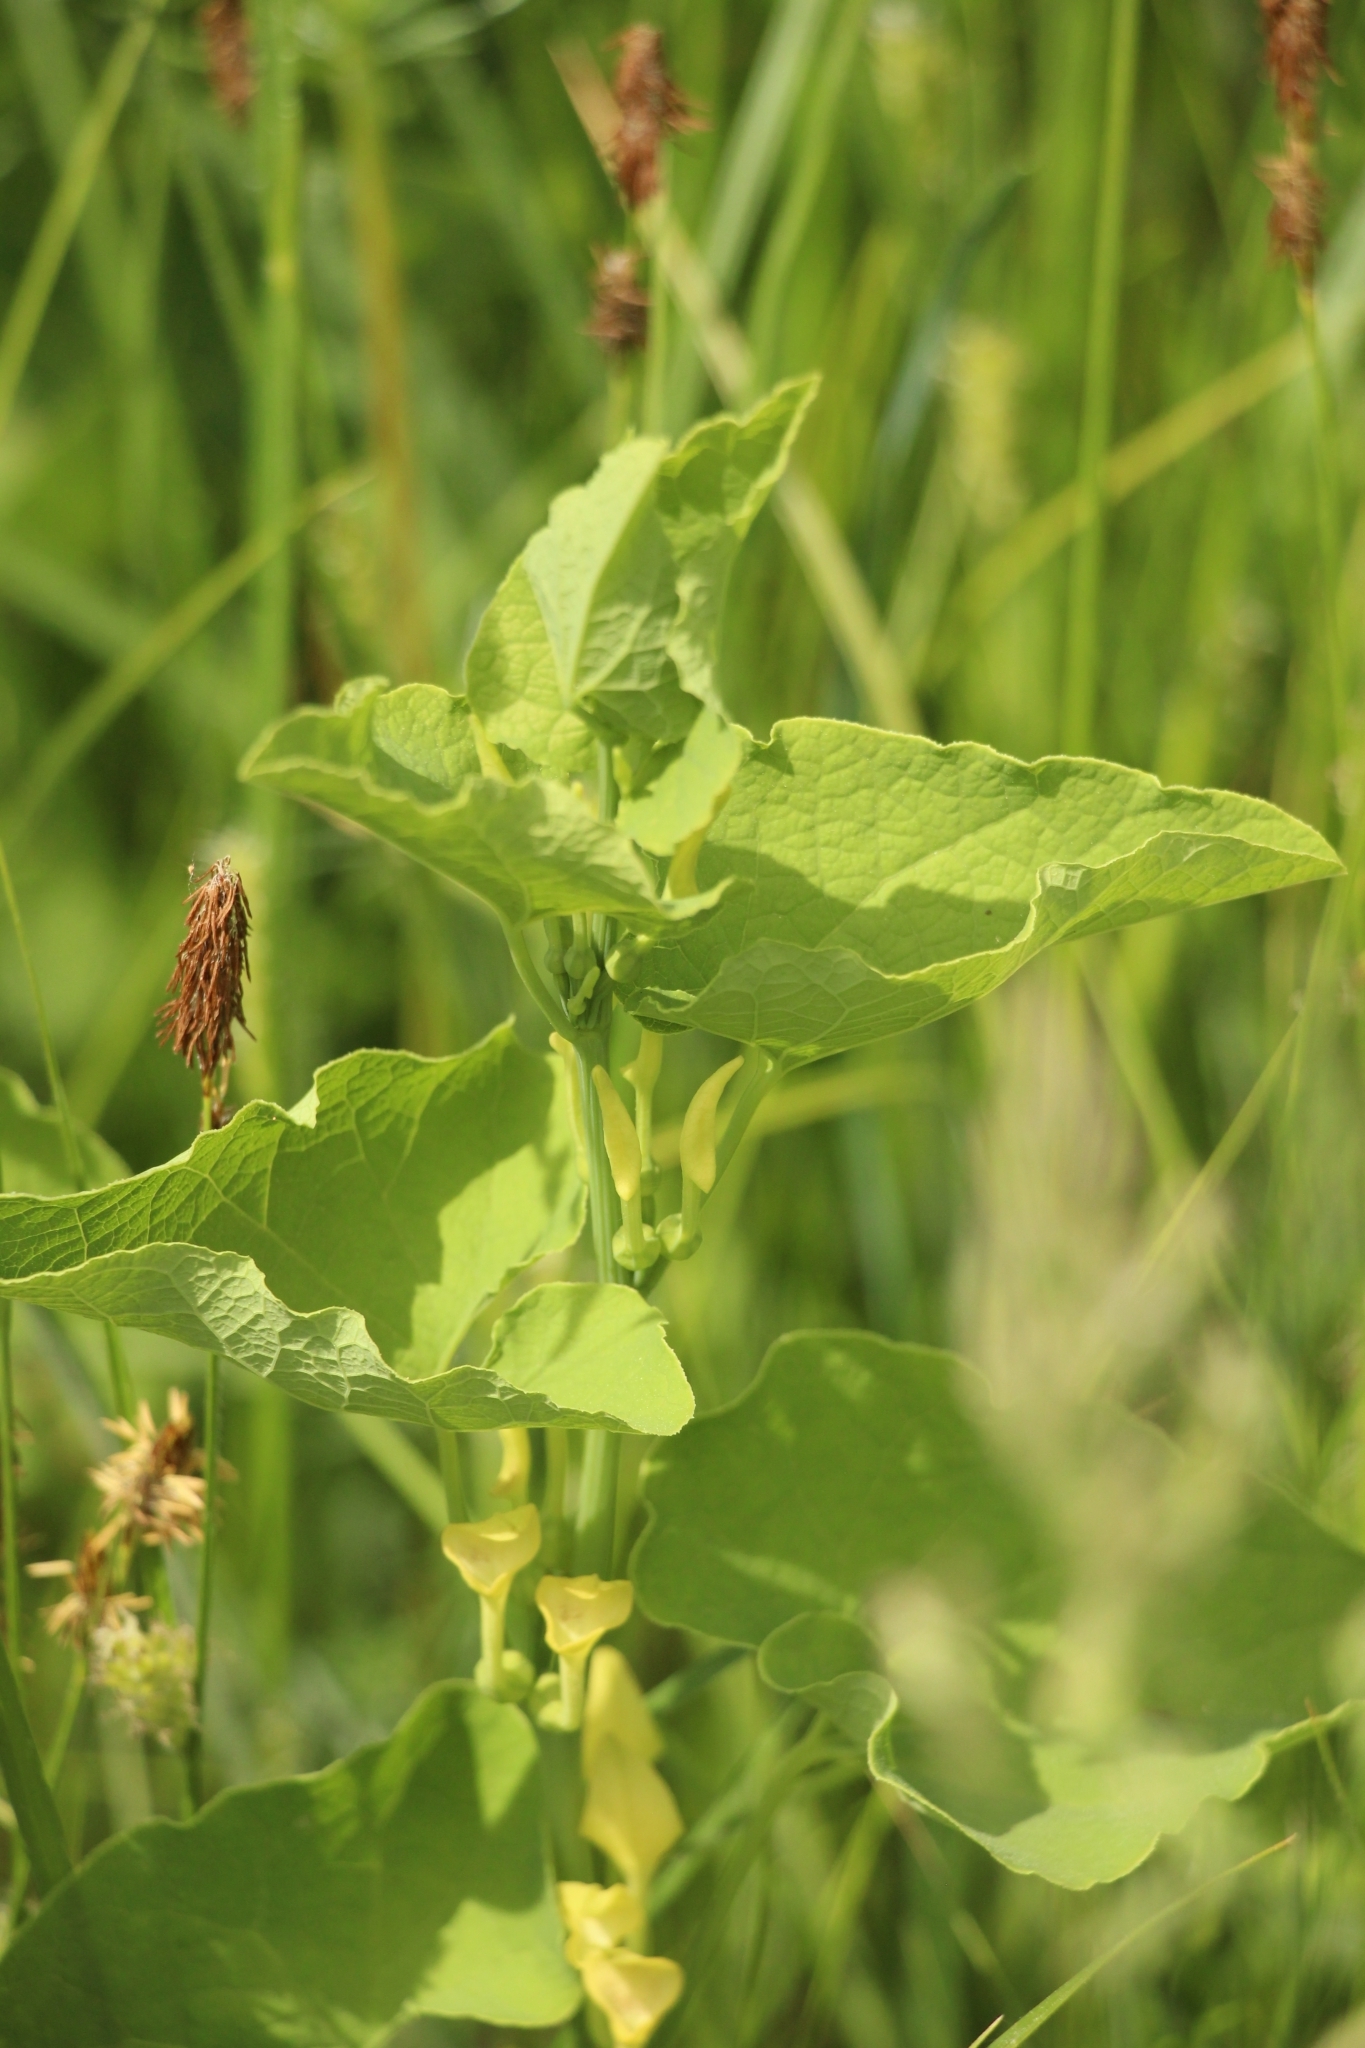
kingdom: Plantae
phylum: Tracheophyta
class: Magnoliopsida
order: Piperales
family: Aristolochiaceae
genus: Aristolochia
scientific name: Aristolochia clematitis
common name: Birthwort
